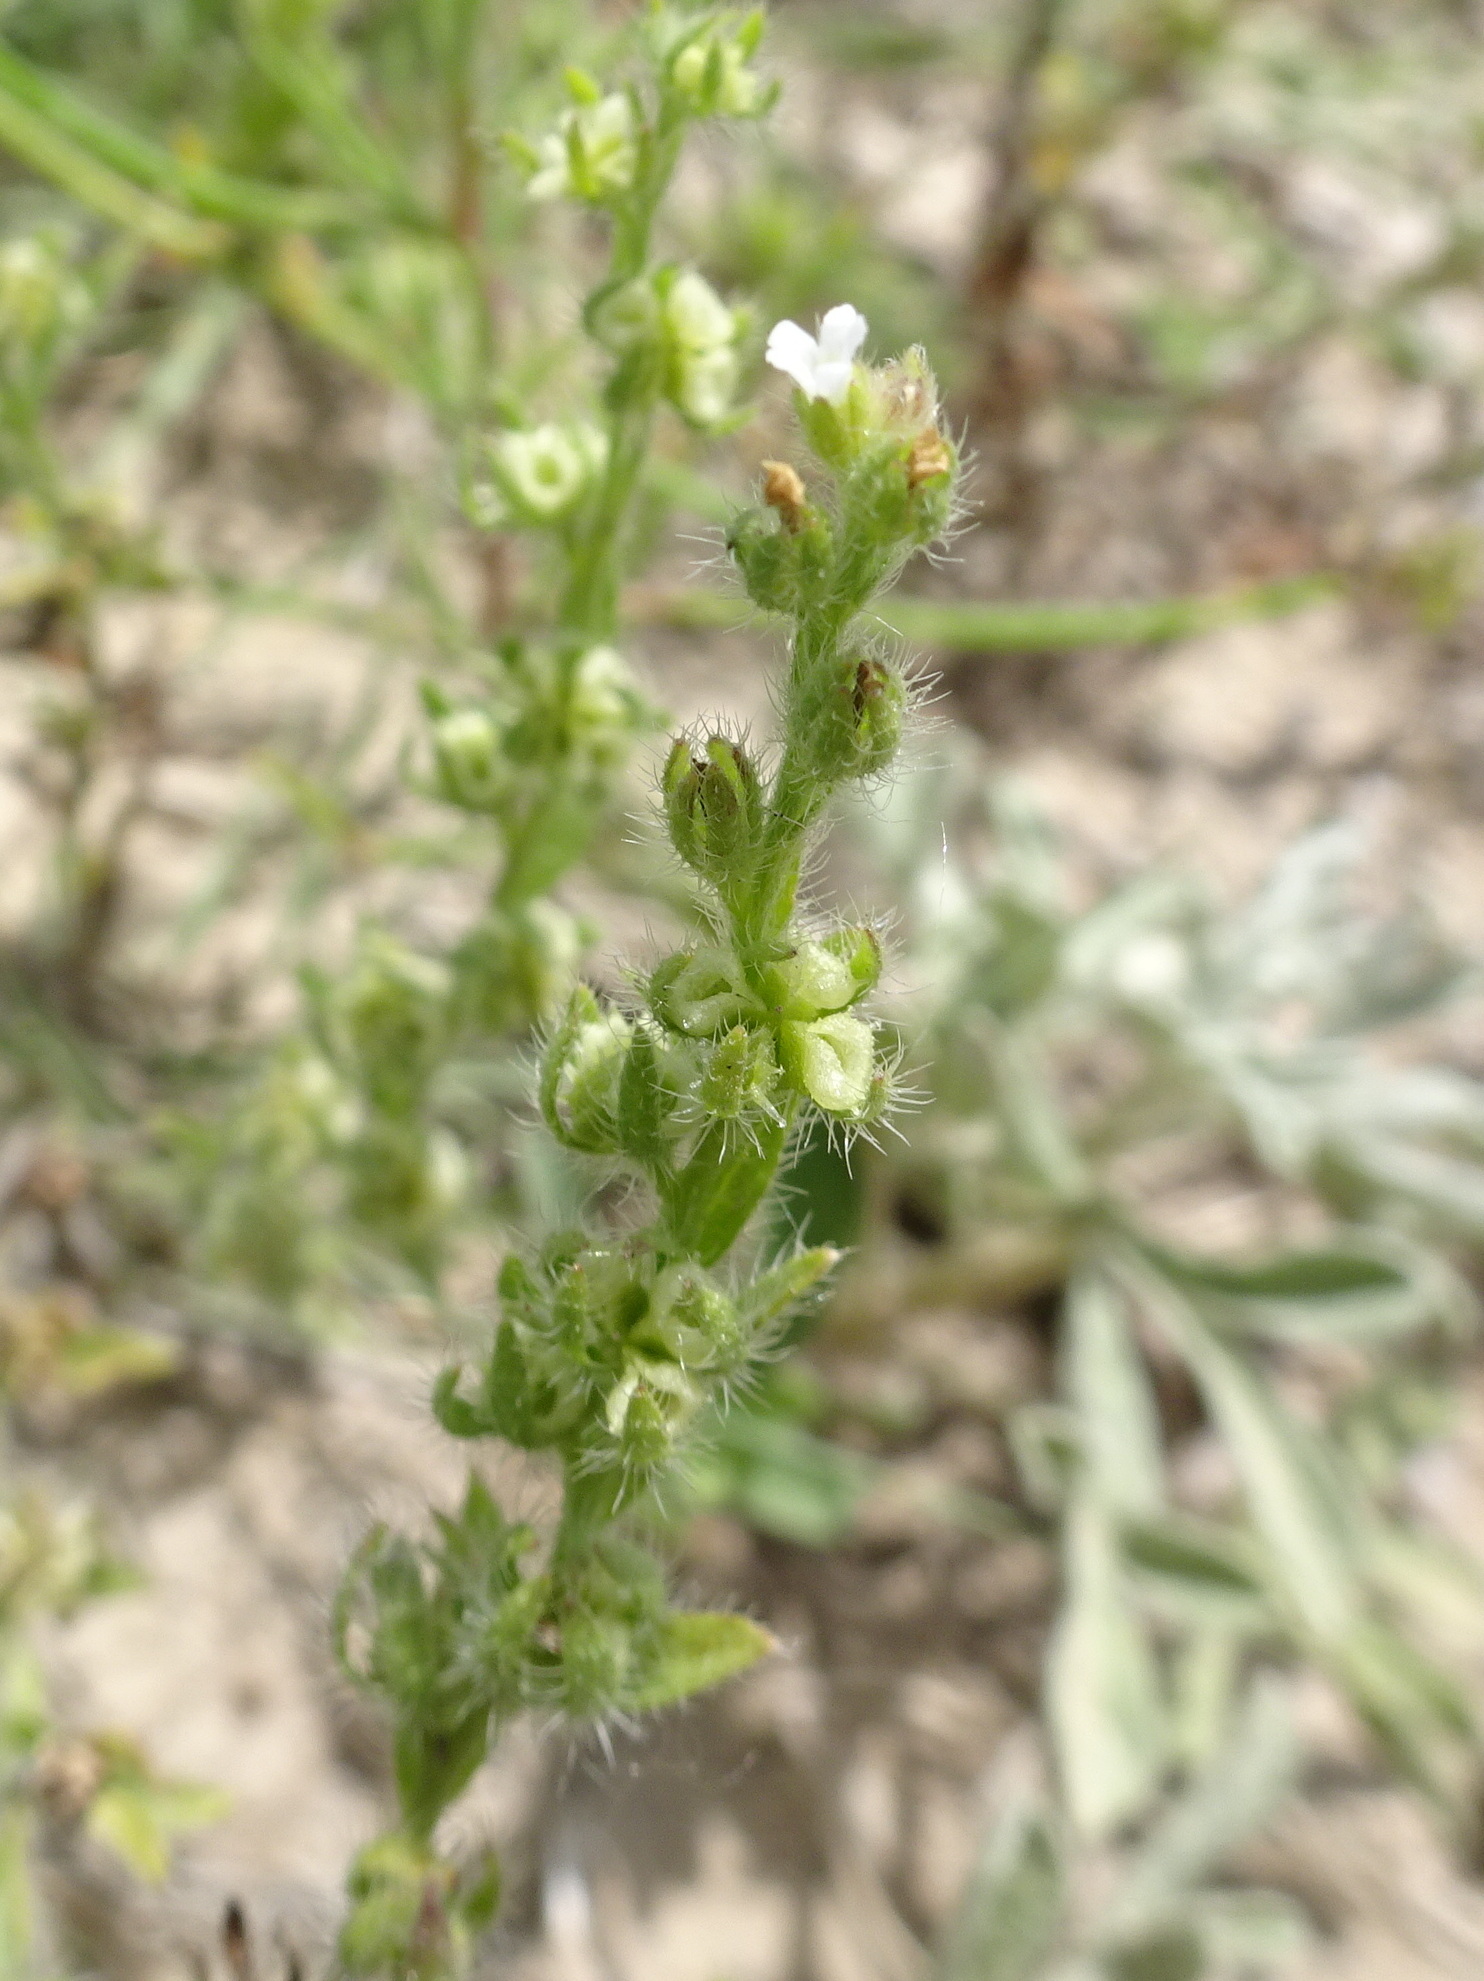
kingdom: Plantae
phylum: Tracheophyta
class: Magnoliopsida
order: Boraginales
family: Boraginaceae
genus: Lappula
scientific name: Lappula occidentalis
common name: Western stickseed
